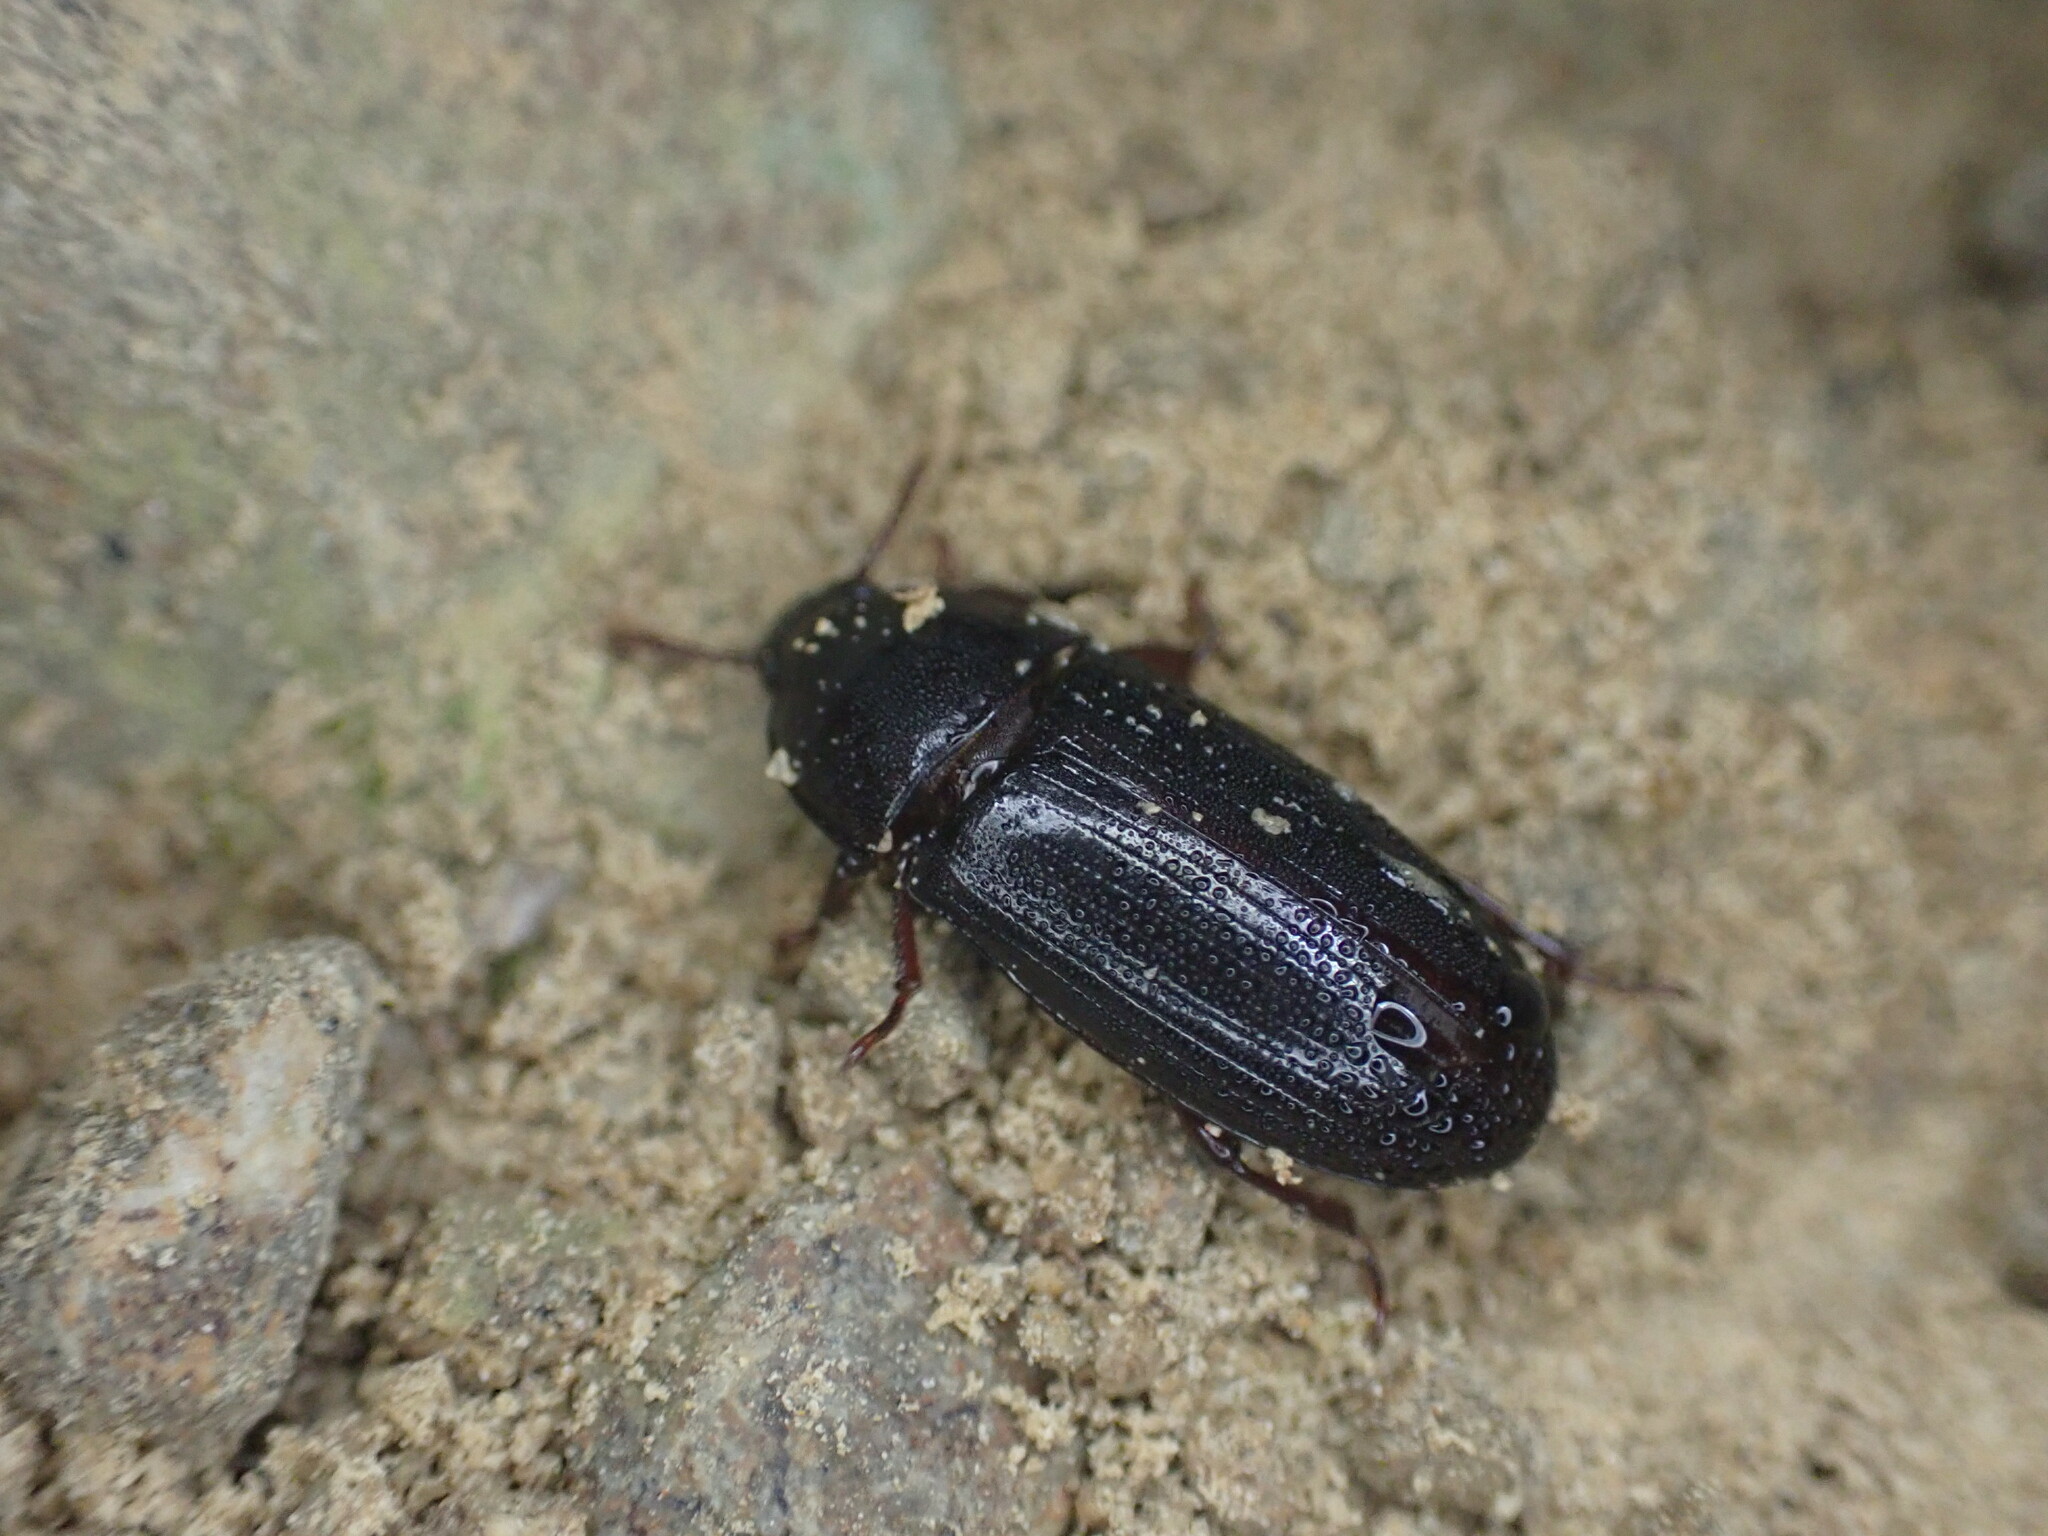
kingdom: Animalia
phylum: Arthropoda
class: Insecta
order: Coleoptera
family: Tenebrionidae
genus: Uloma
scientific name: Uloma tenebrionoides
